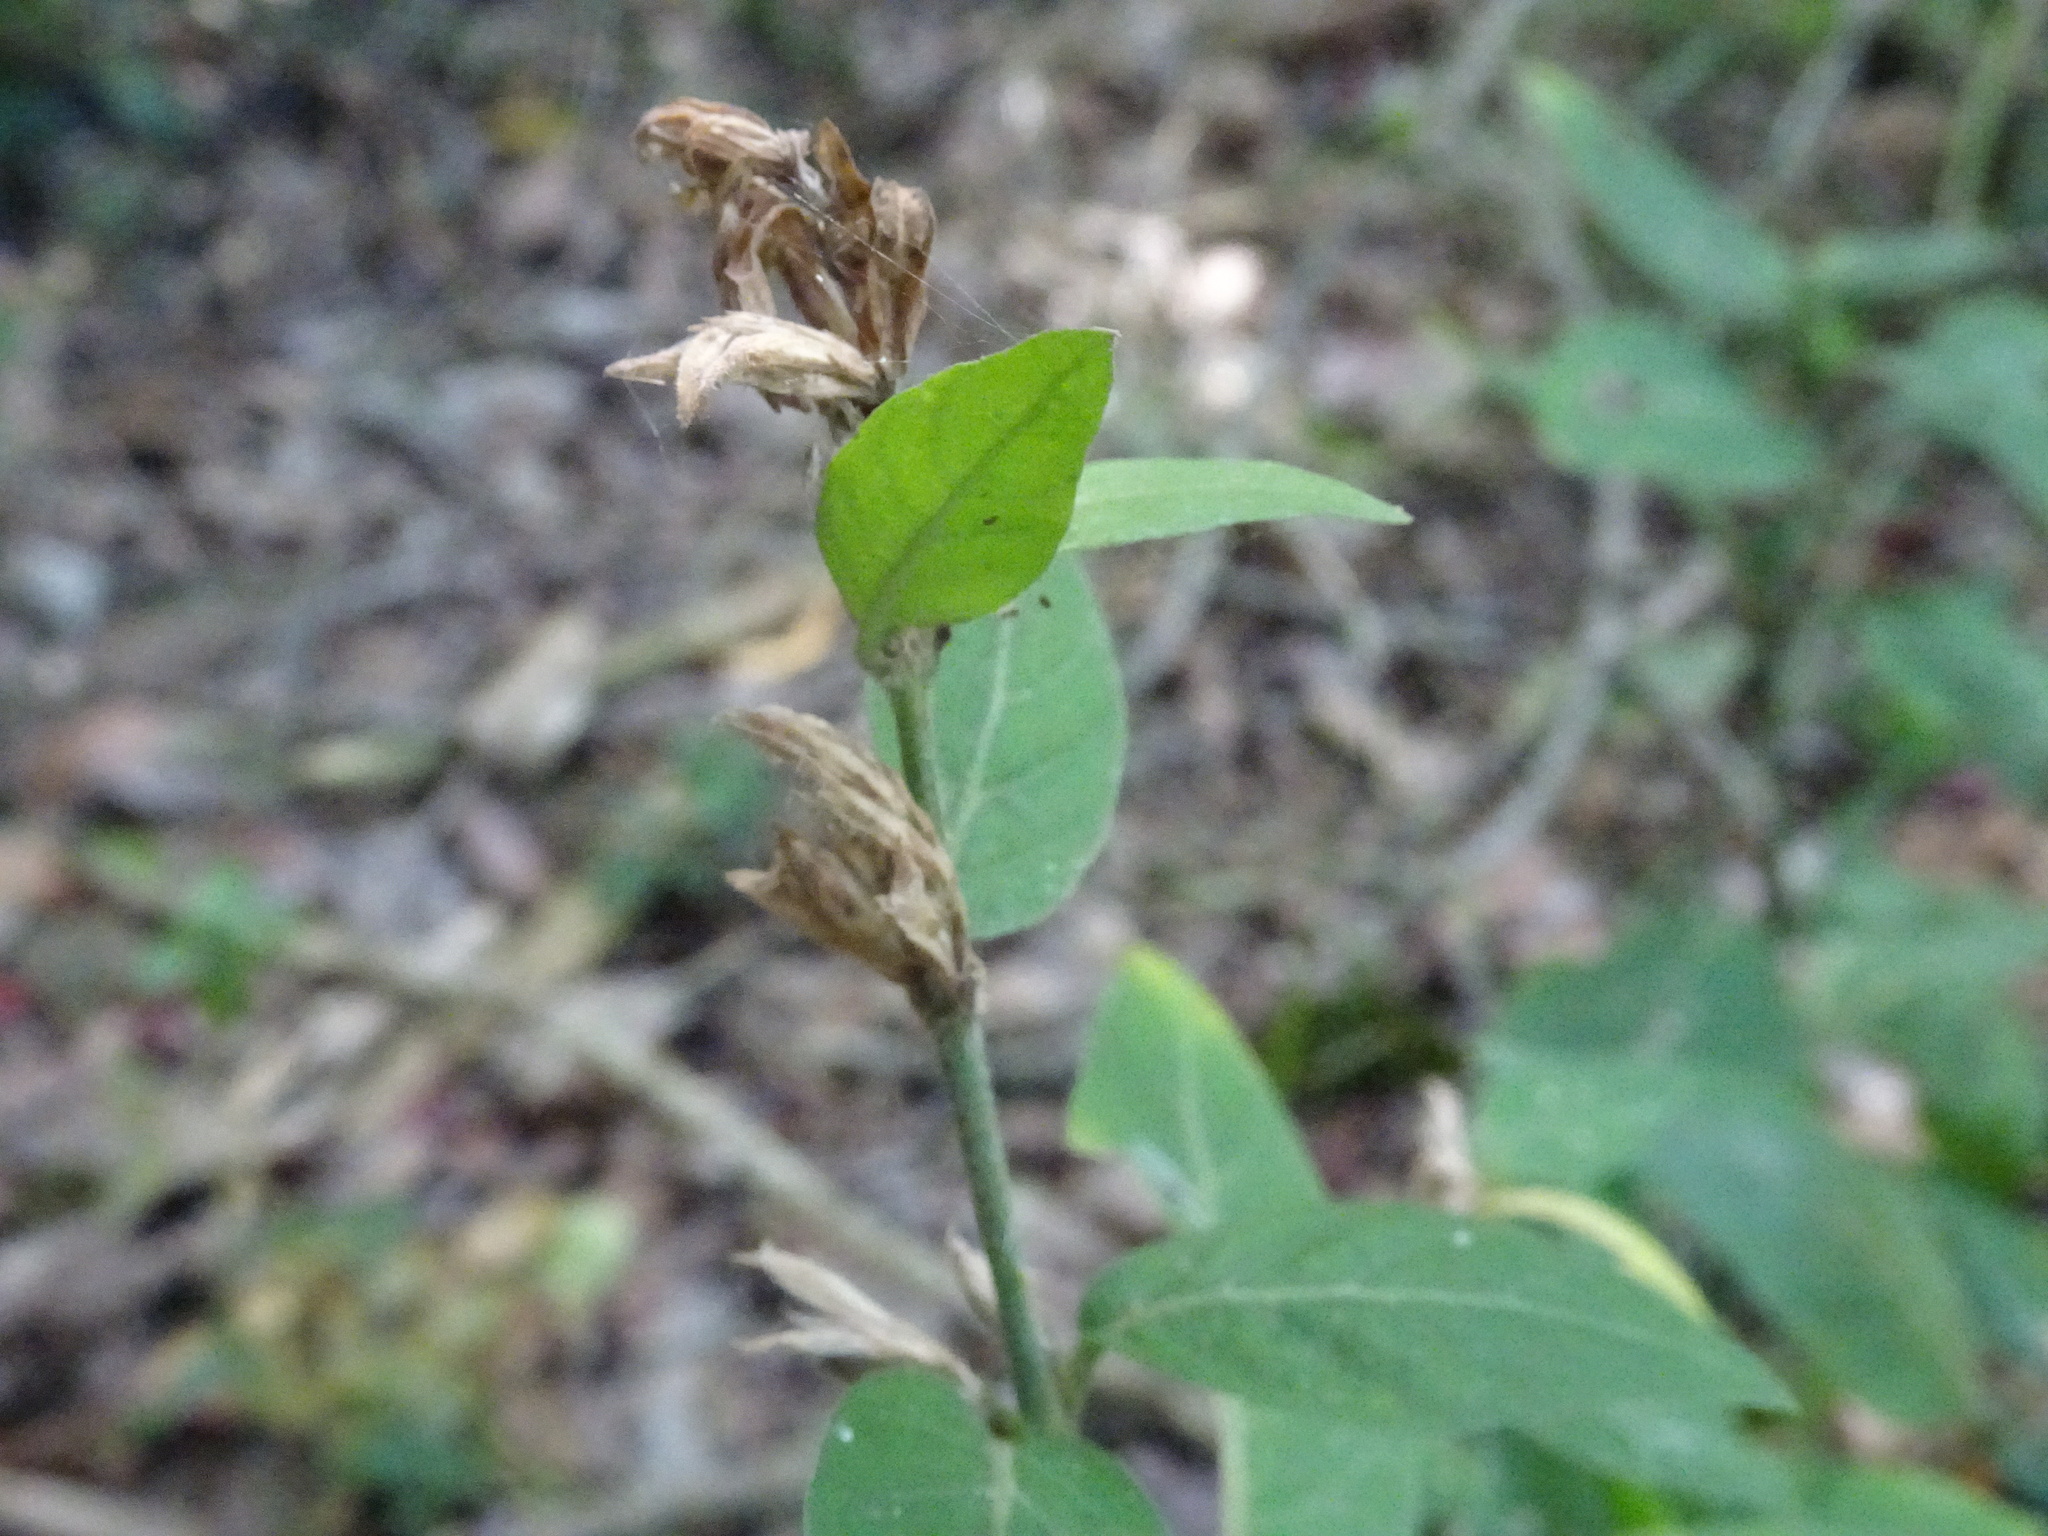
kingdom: Plantae
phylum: Tracheophyta
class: Magnoliopsida
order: Lamiales
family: Acanthaceae
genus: Hypoestes
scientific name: Hypoestes forskaolii
